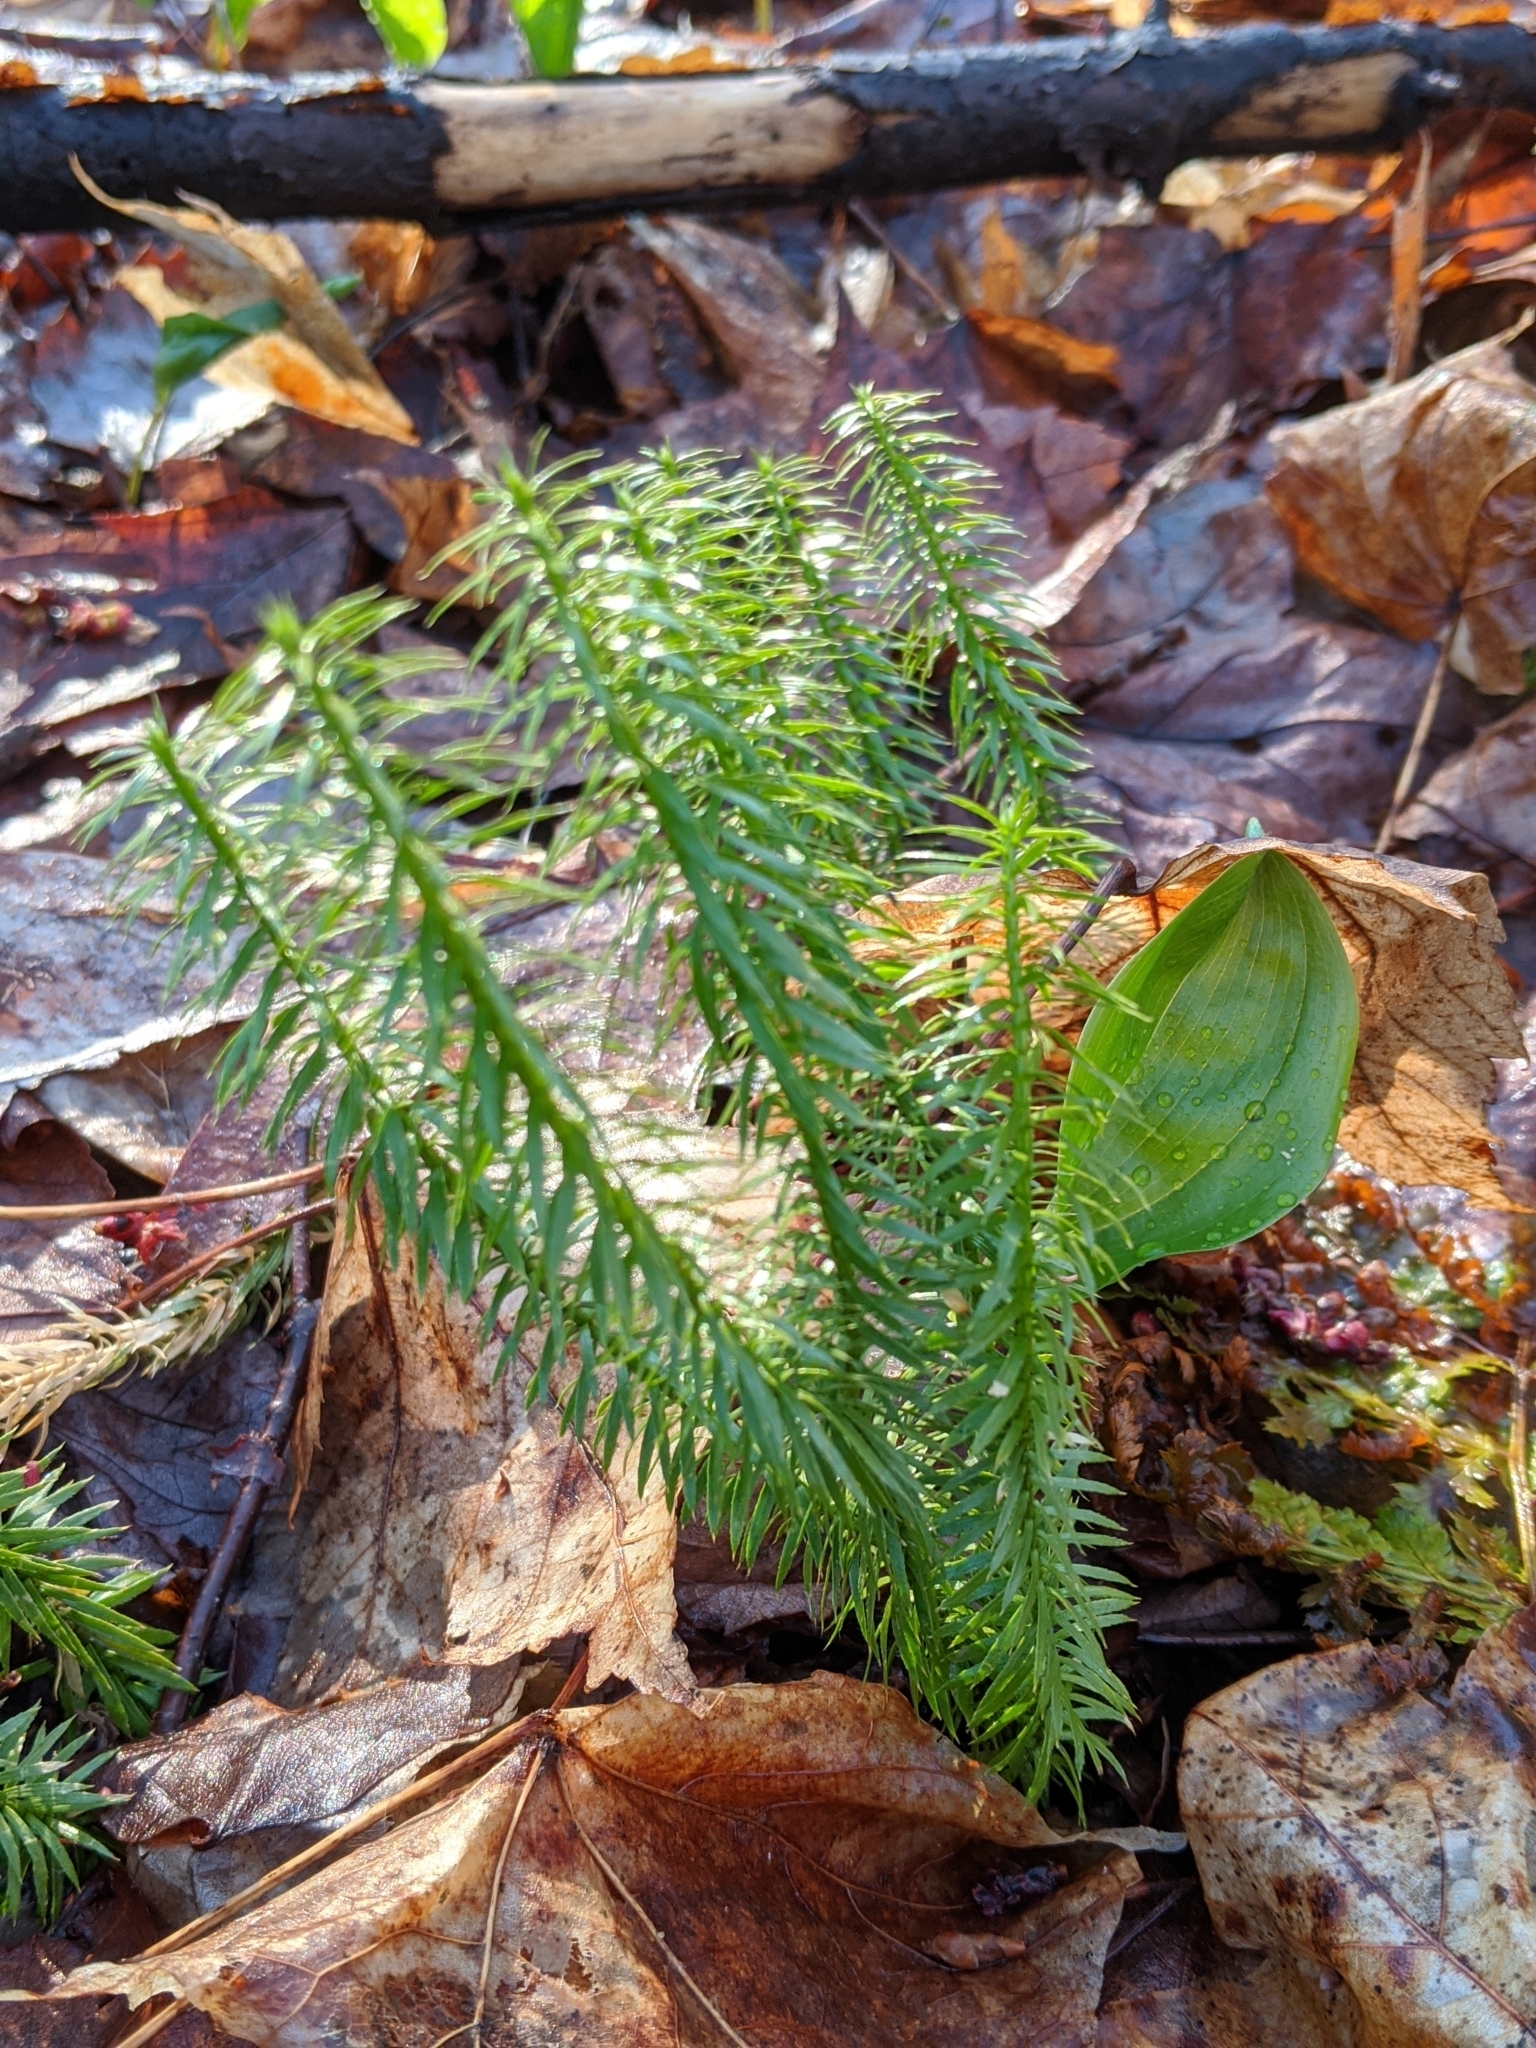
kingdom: Plantae
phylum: Tracheophyta
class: Lycopodiopsida
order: Lycopodiales
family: Lycopodiaceae
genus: Spinulum
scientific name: Spinulum annotinum
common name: Interrupted club-moss
